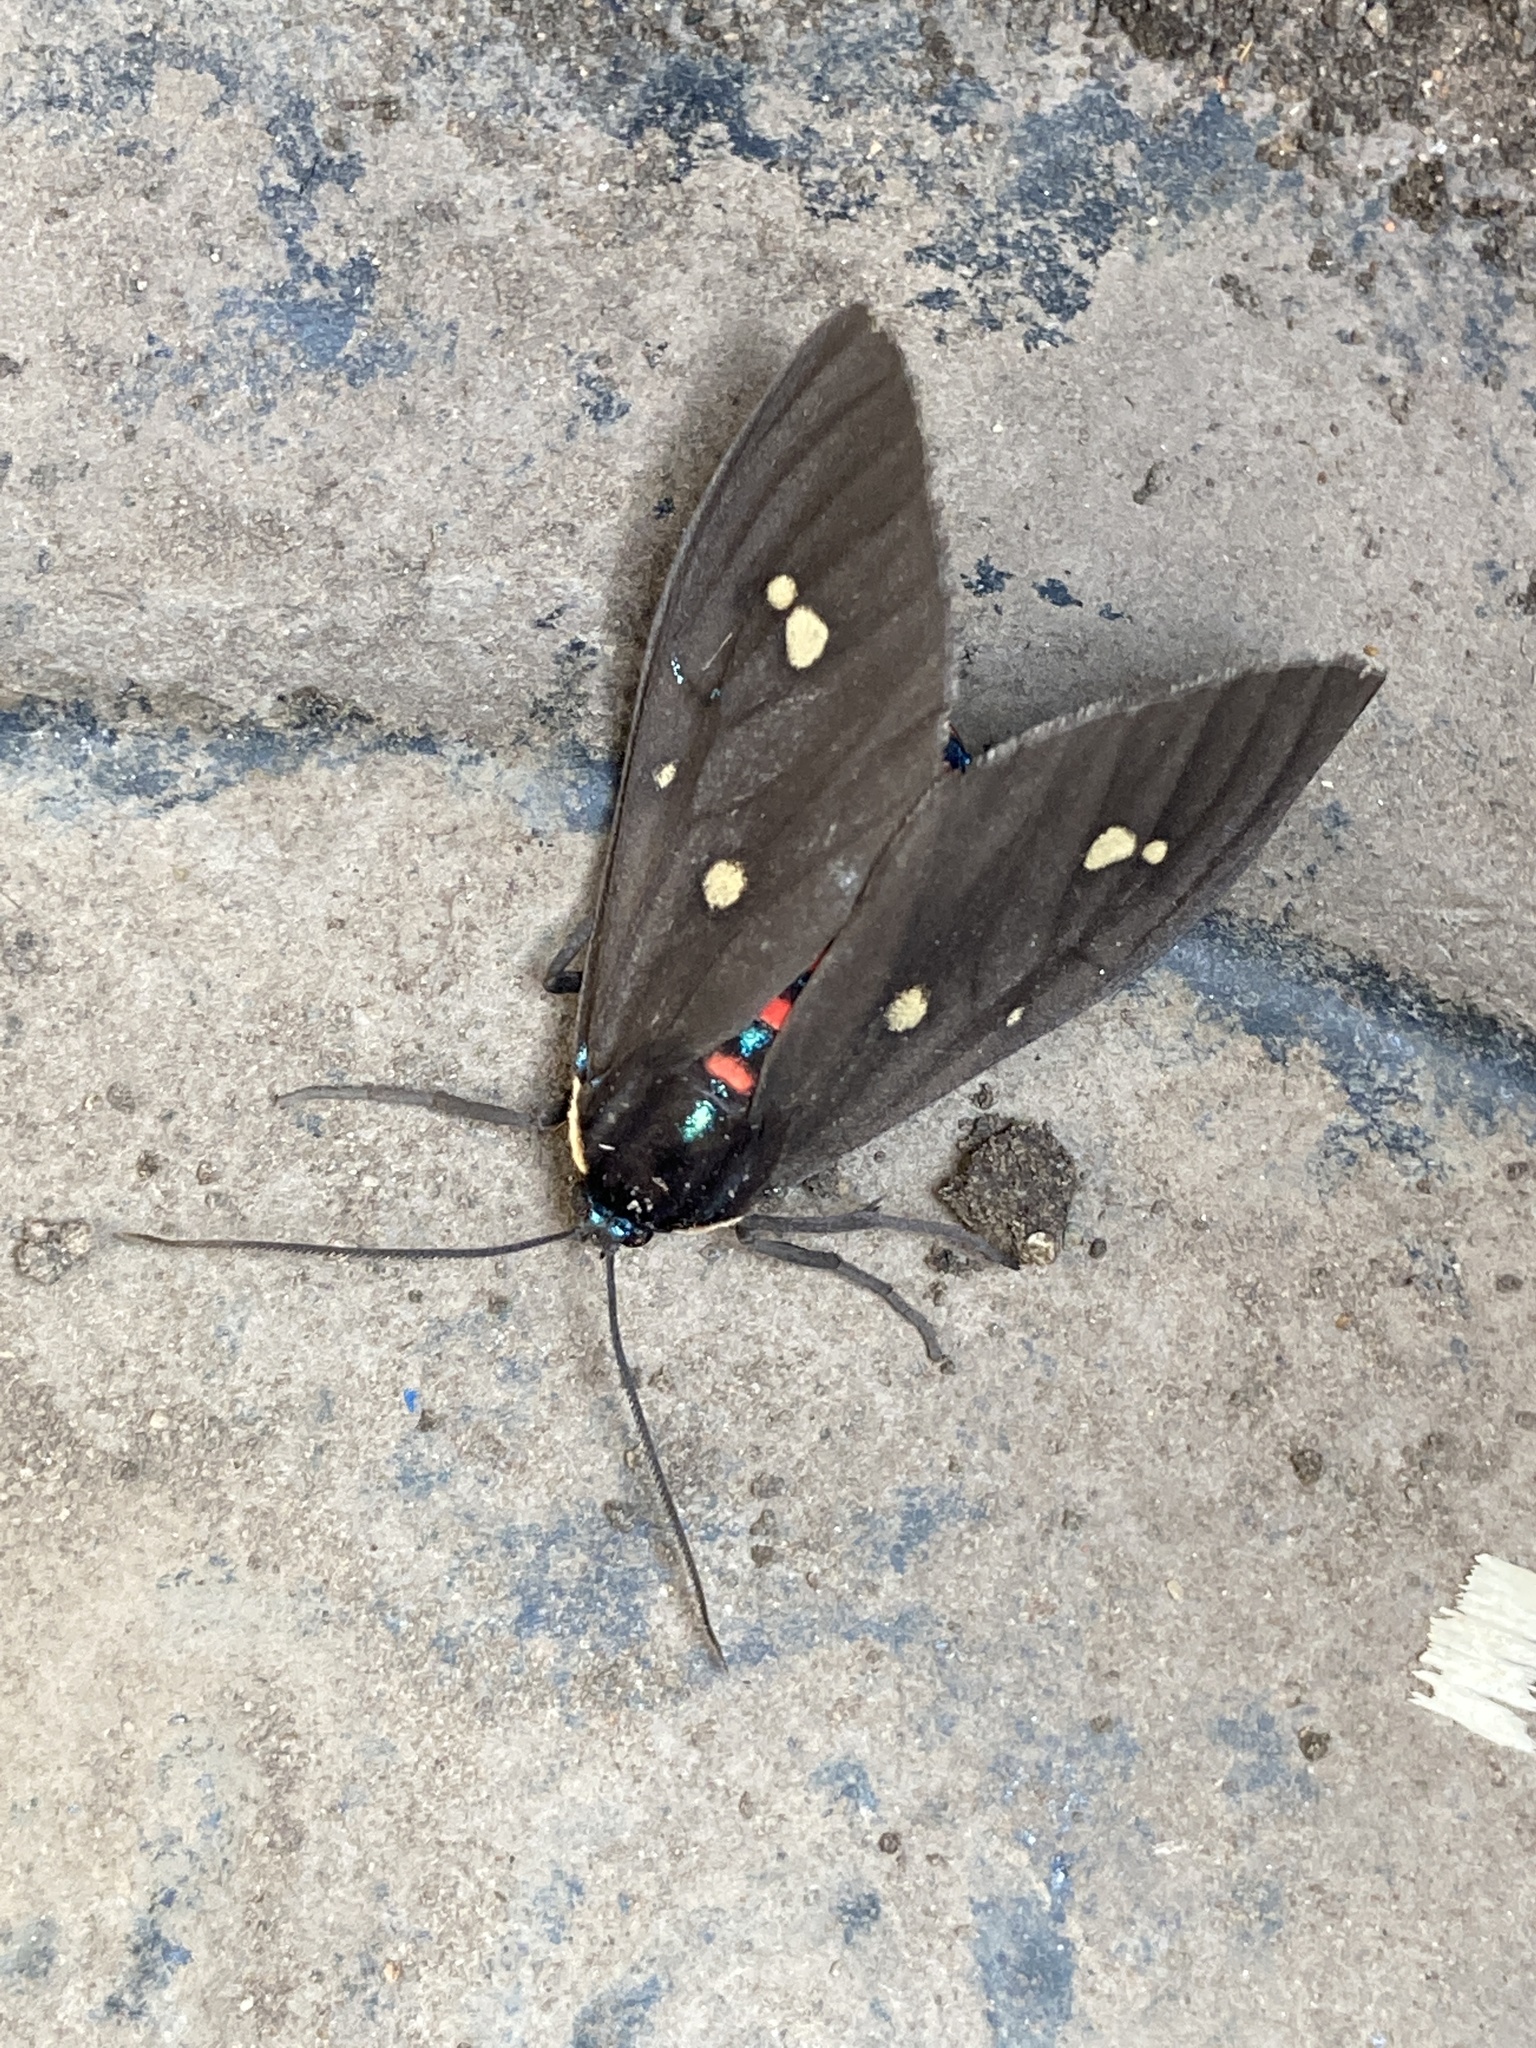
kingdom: Animalia
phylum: Arthropoda
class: Insecta
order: Lepidoptera
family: Erebidae
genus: Euclera
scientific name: Euclera
